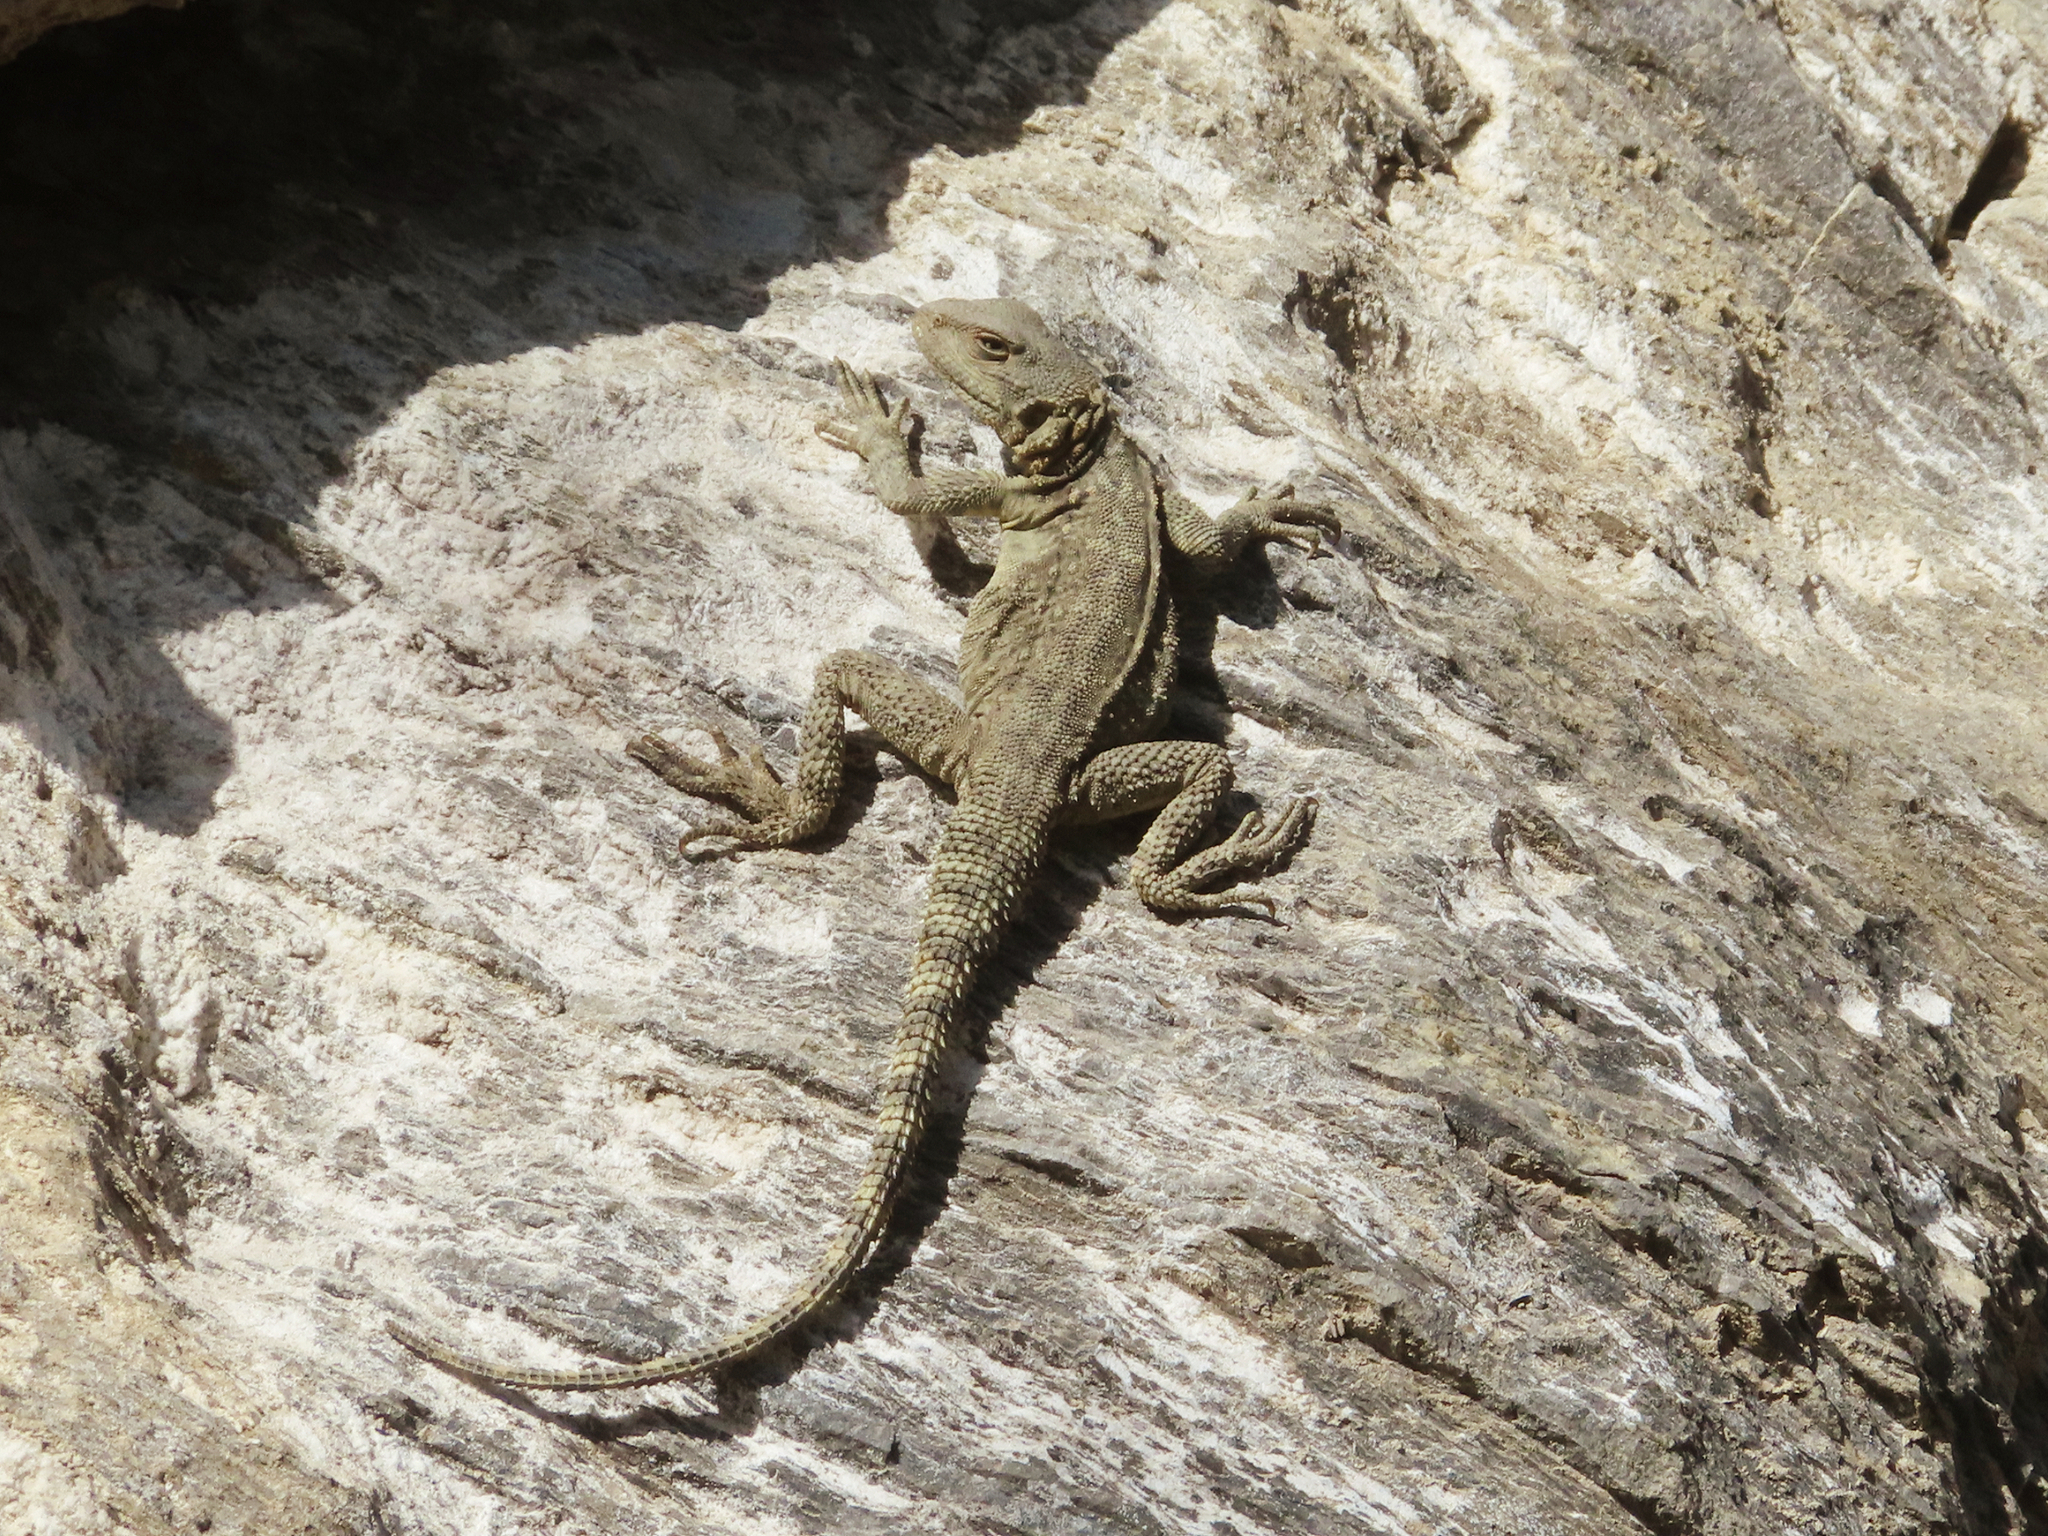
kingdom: Animalia
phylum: Chordata
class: Squamata
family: Agamidae
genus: Paralaudakia
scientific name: Paralaudakia caucasia
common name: Caucasian agama
